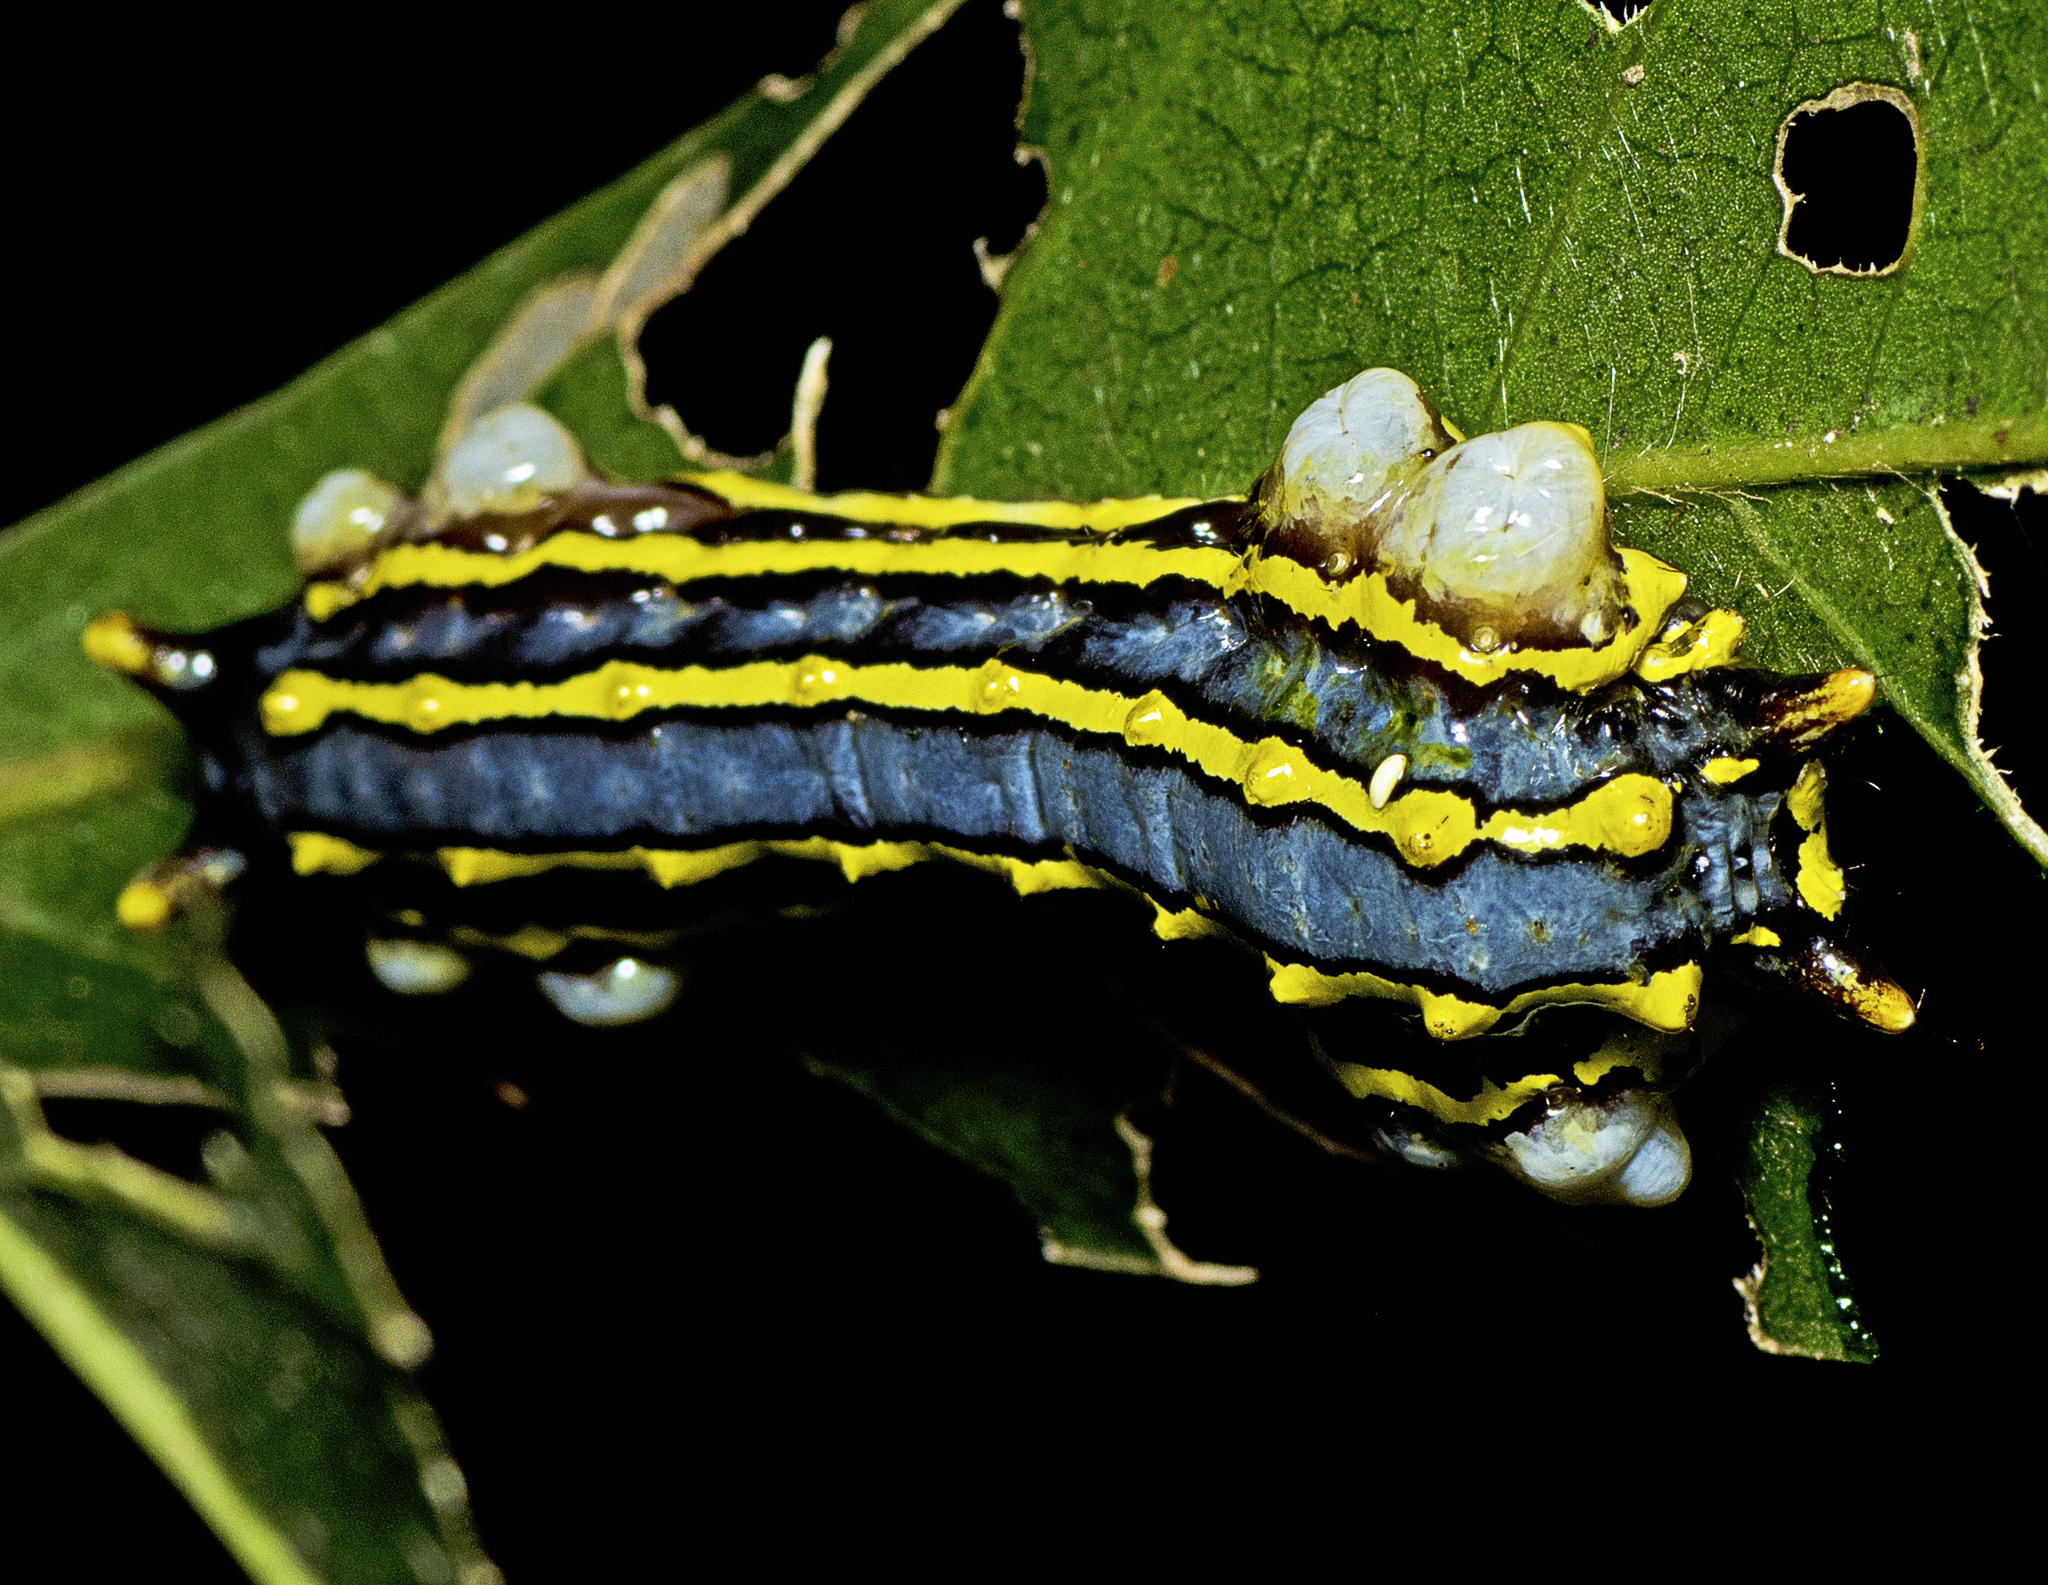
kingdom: Animalia
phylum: Arthropoda
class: Insecta
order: Lepidoptera
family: Lacturidae
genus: Lactura
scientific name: Lactura sapotearum
